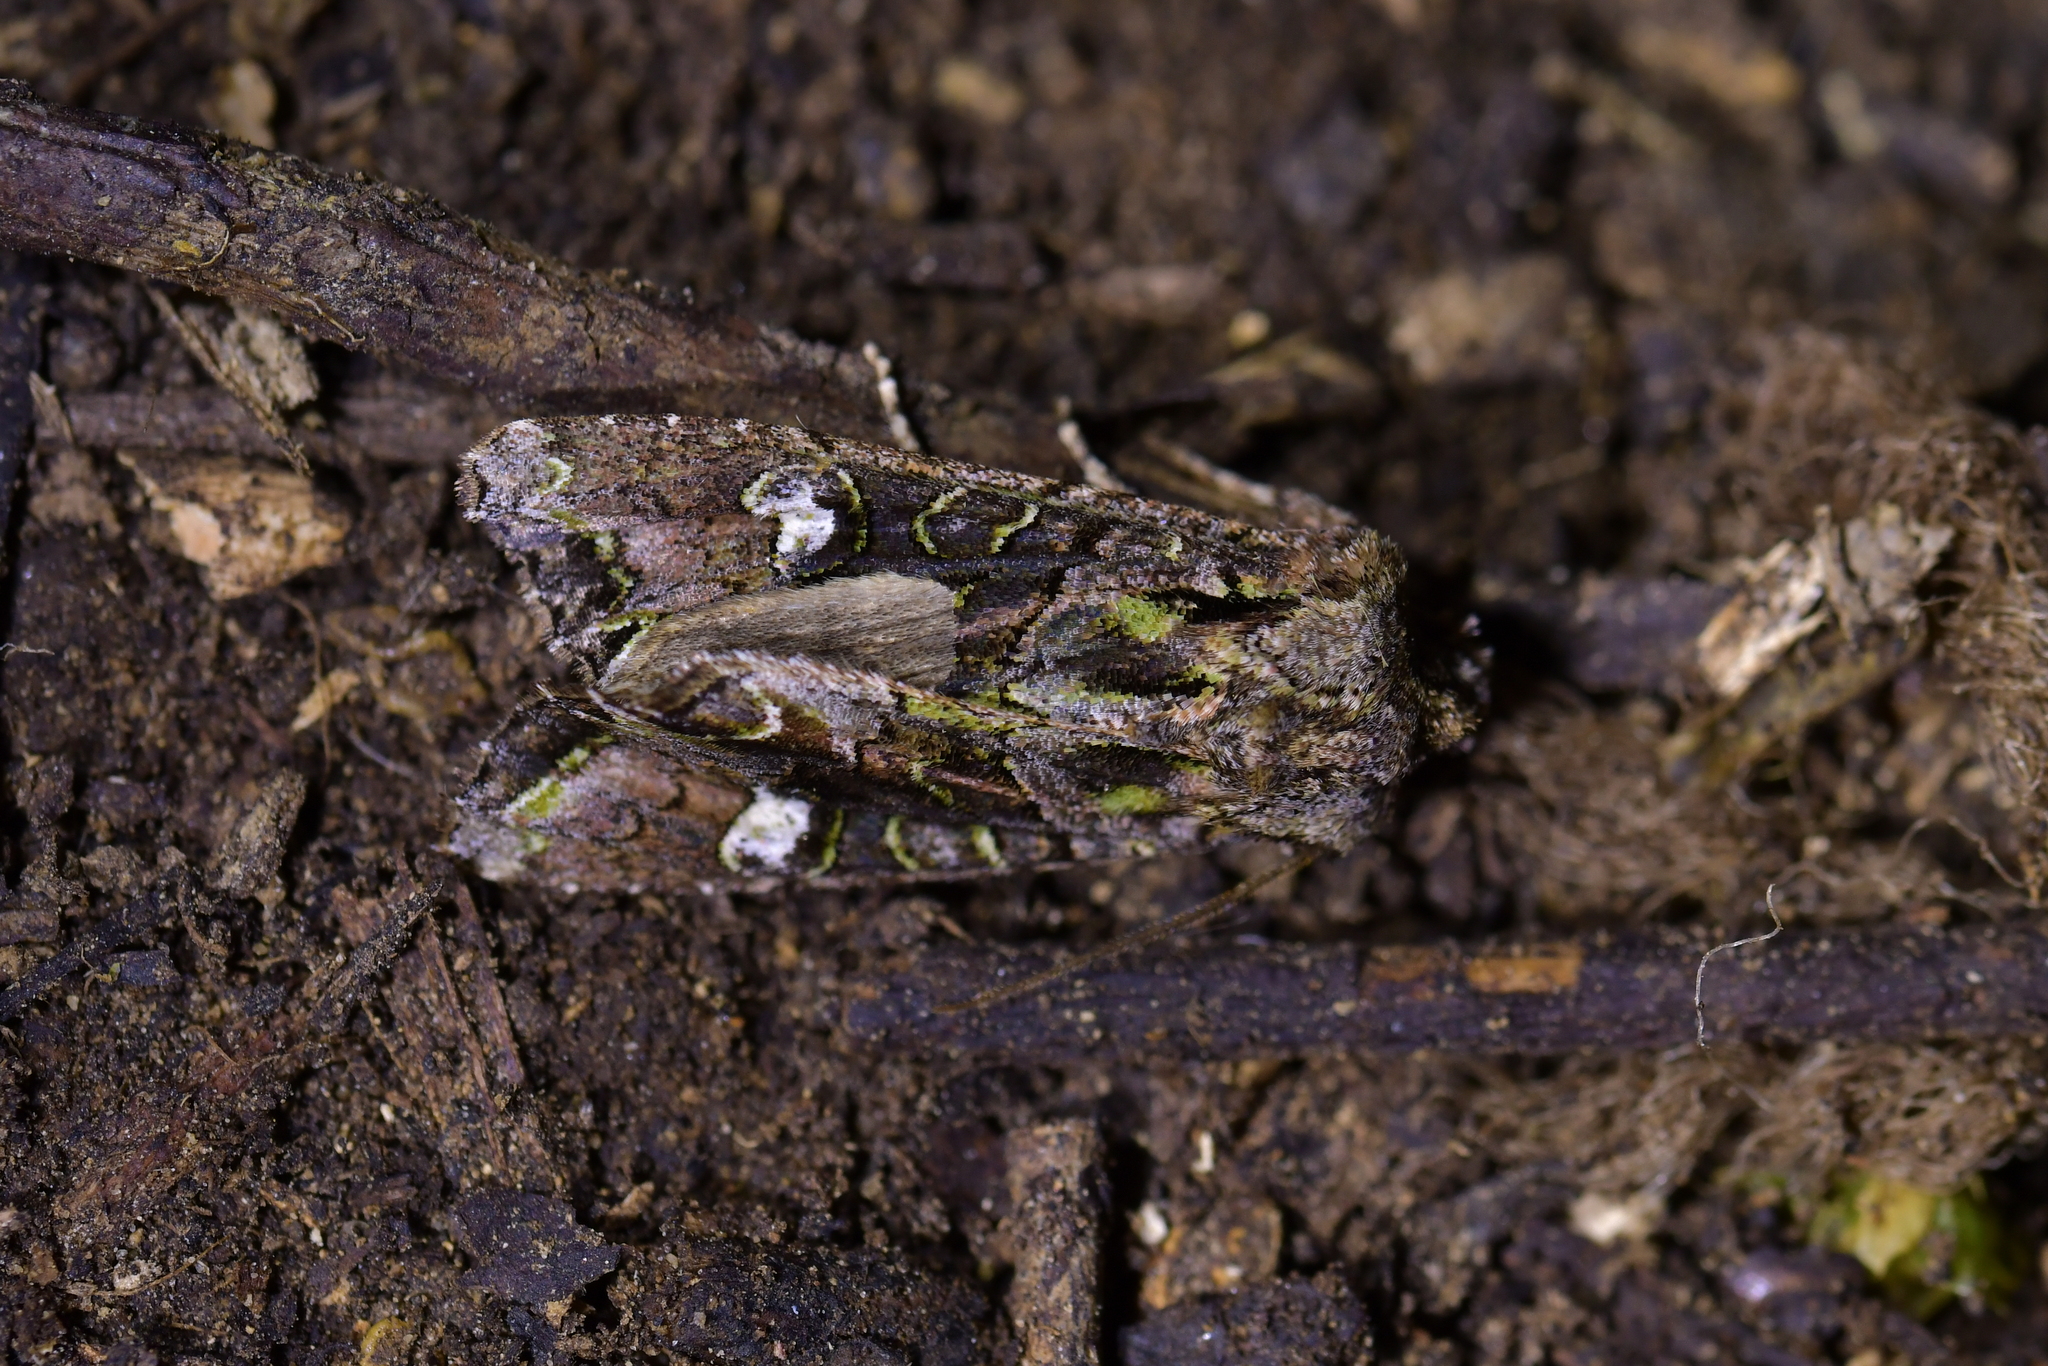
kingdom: Animalia
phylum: Arthropoda
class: Insecta
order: Lepidoptera
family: Noctuidae
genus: Ichneutica
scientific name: Ichneutica insignis
